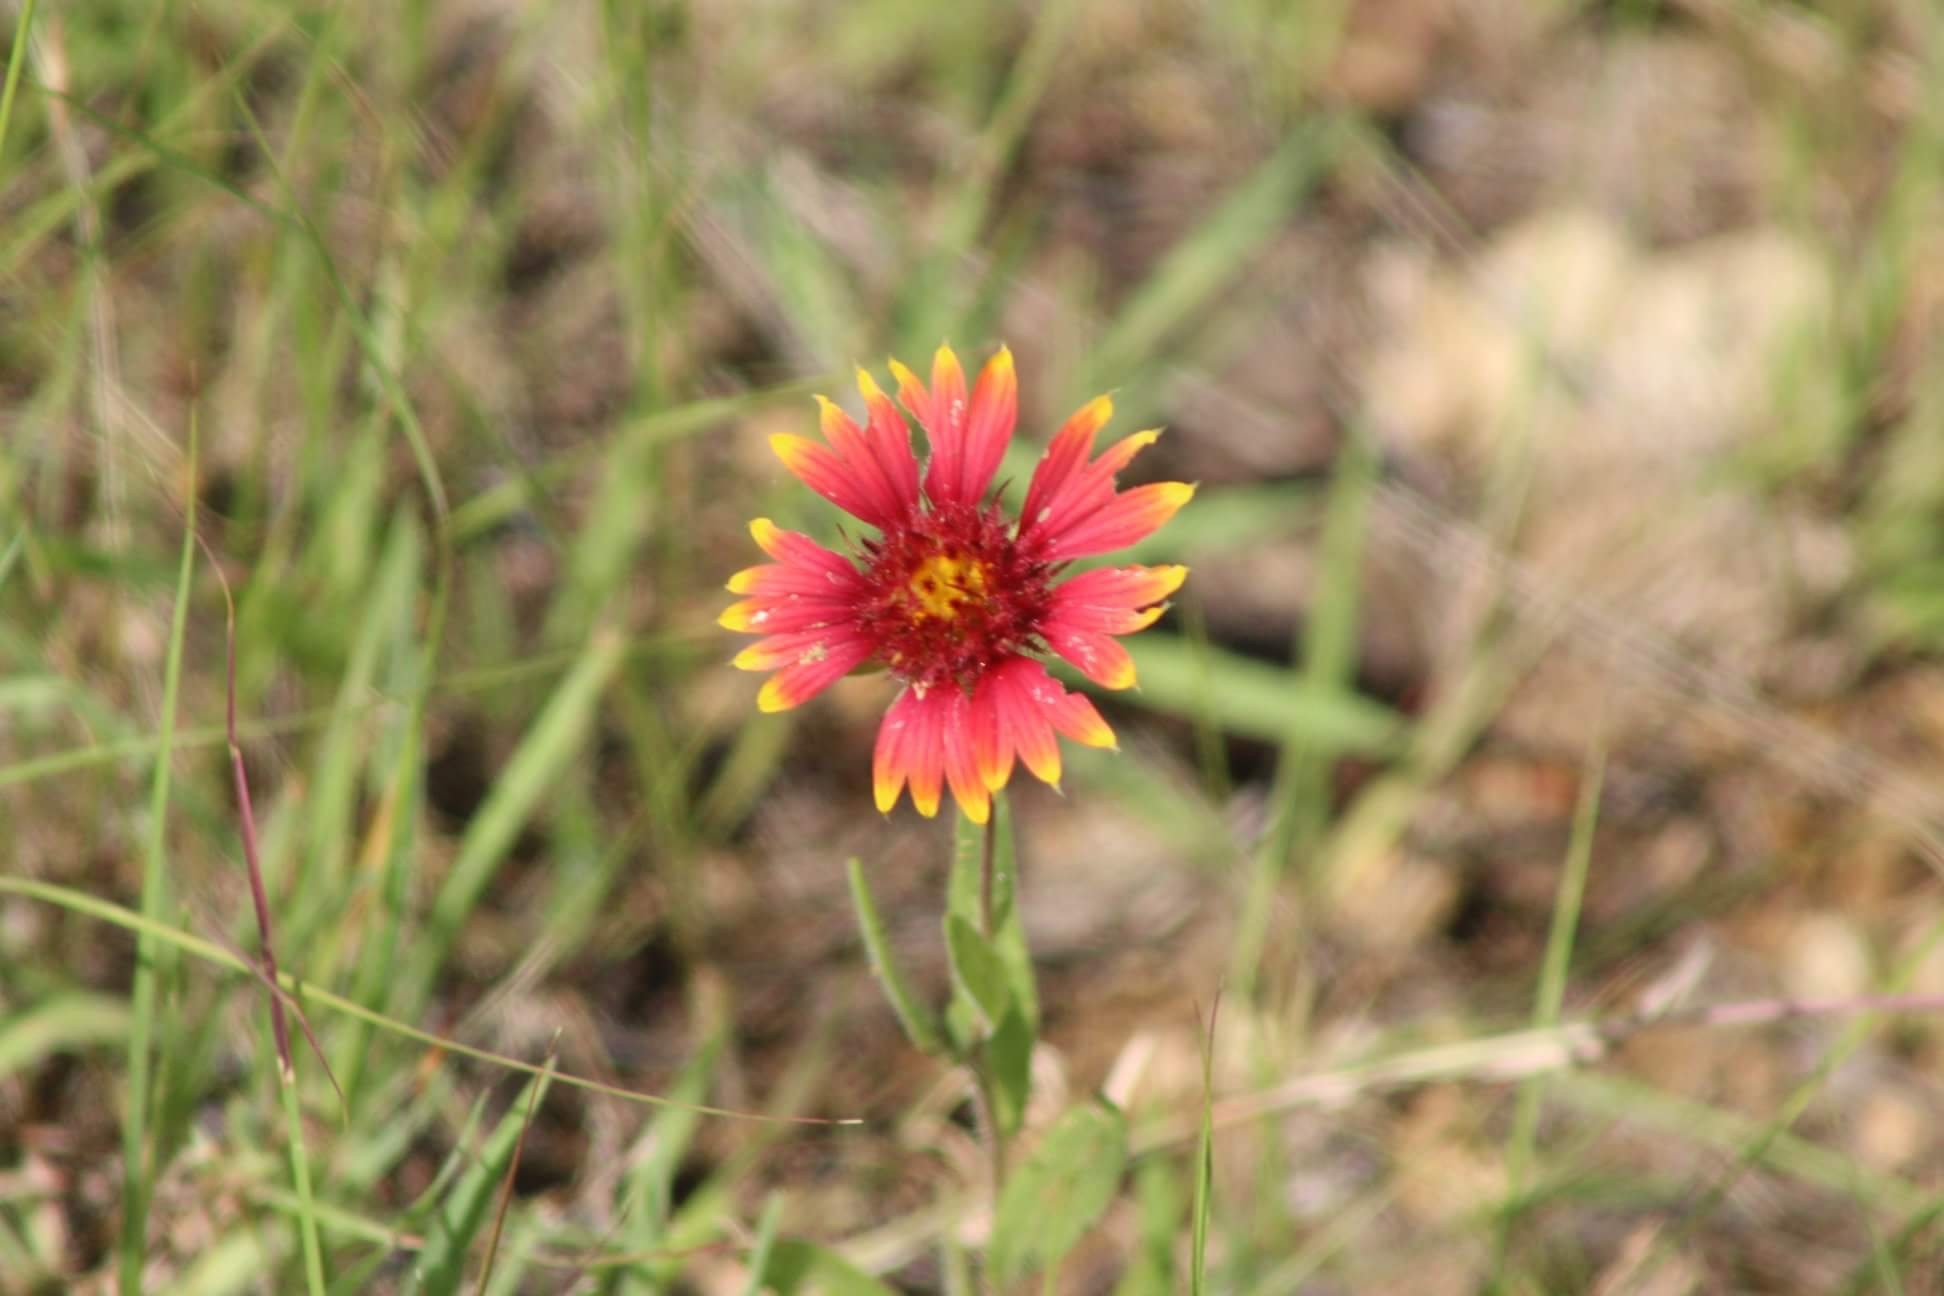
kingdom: Plantae
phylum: Tracheophyta
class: Magnoliopsida
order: Asterales
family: Asteraceae
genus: Gaillardia
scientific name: Gaillardia pulchella
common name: Firewheel
